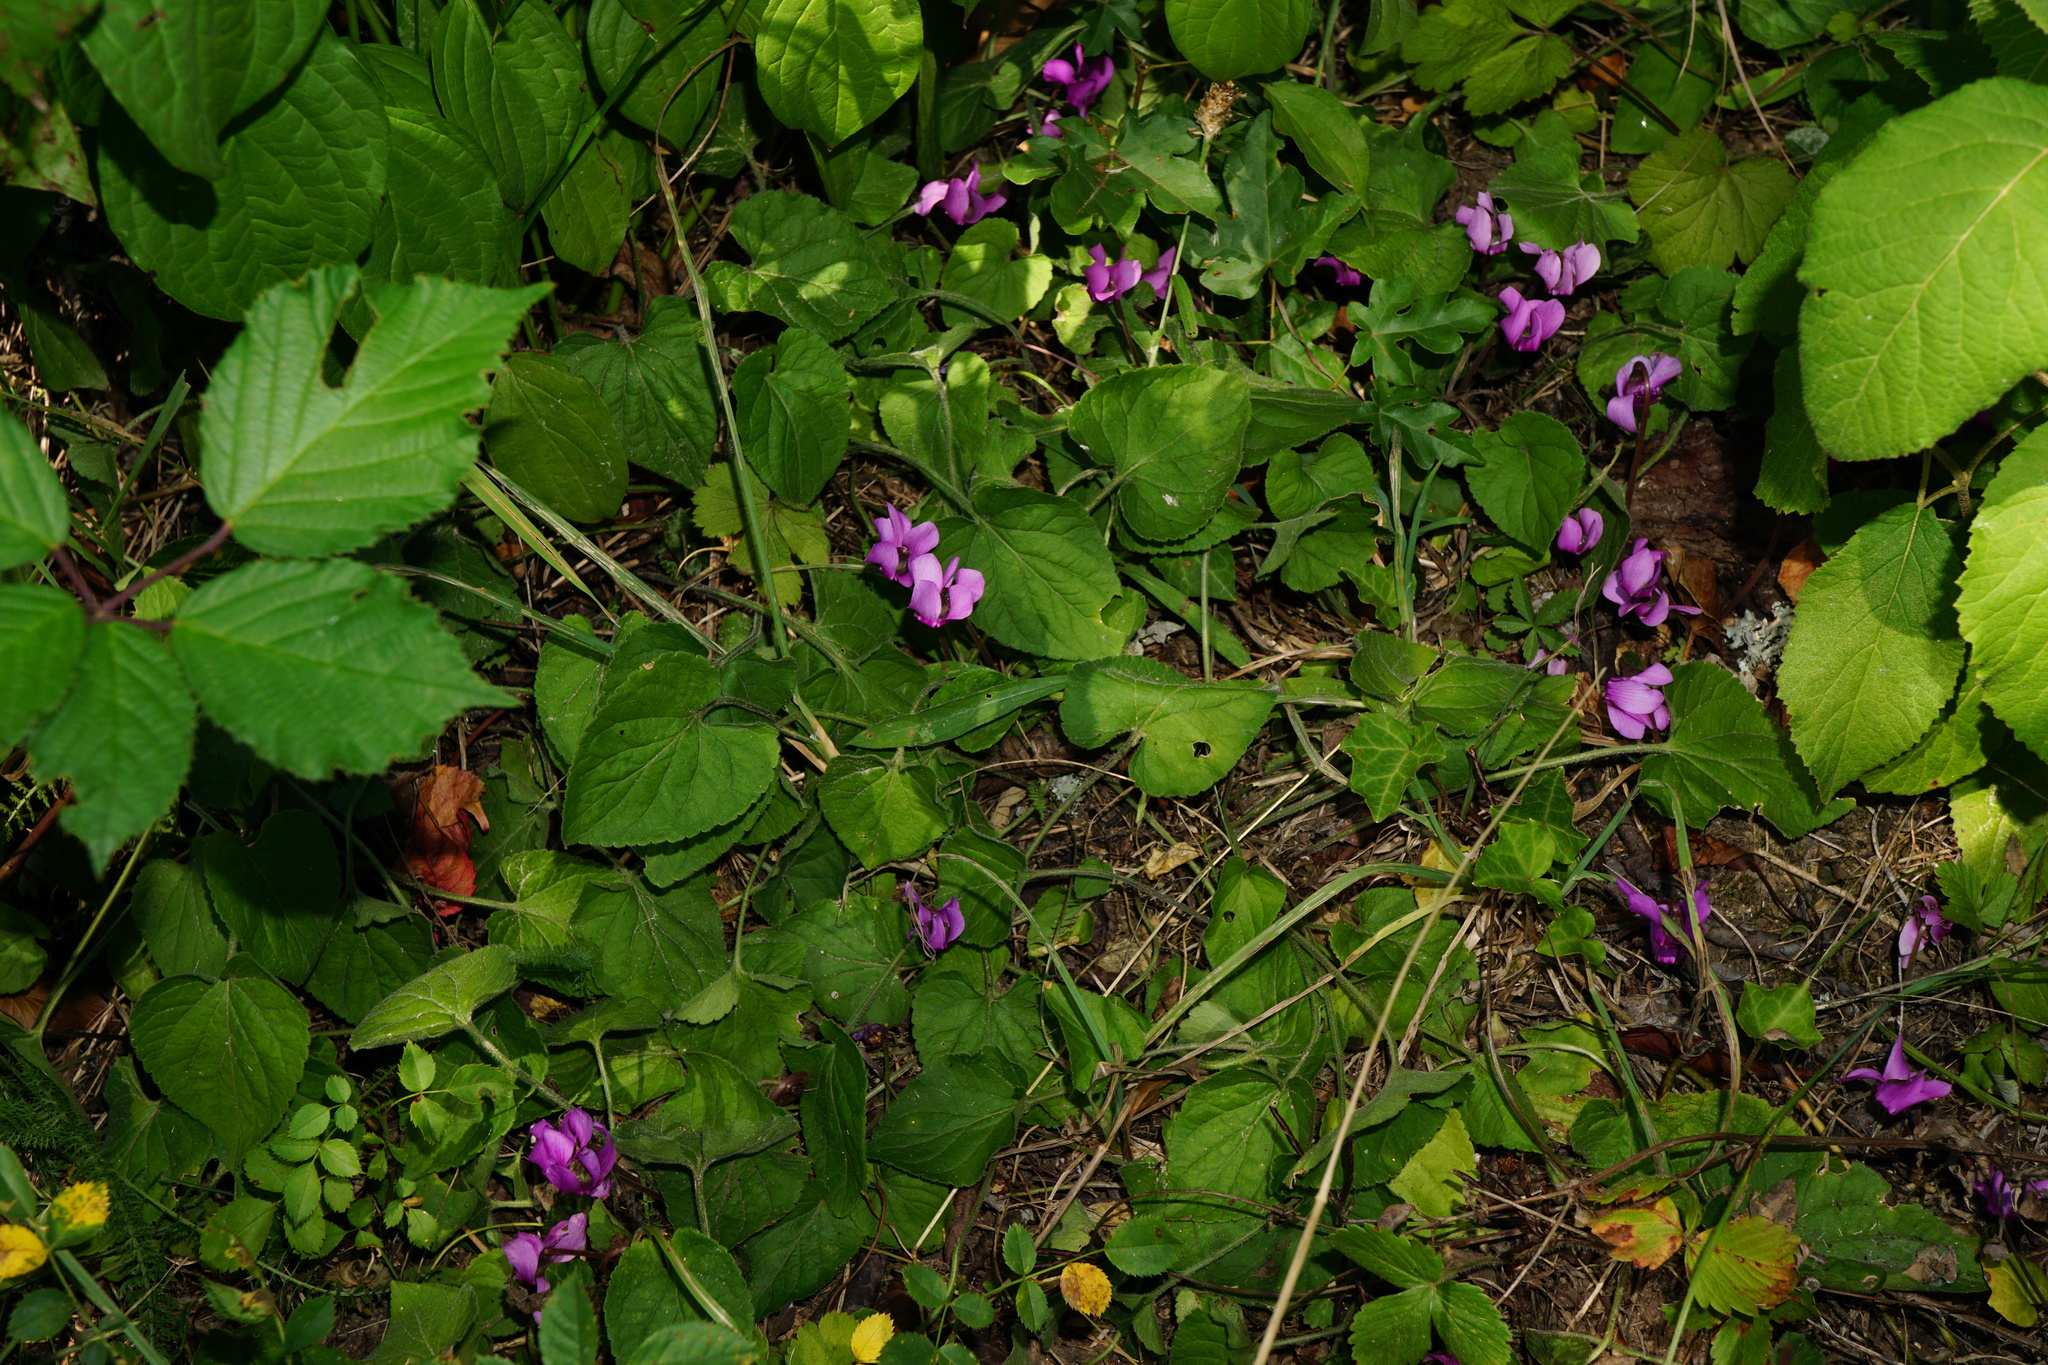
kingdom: Plantae
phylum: Tracheophyta
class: Magnoliopsida
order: Ericales
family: Primulaceae
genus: Cyclamen
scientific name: Cyclamen purpurascens
